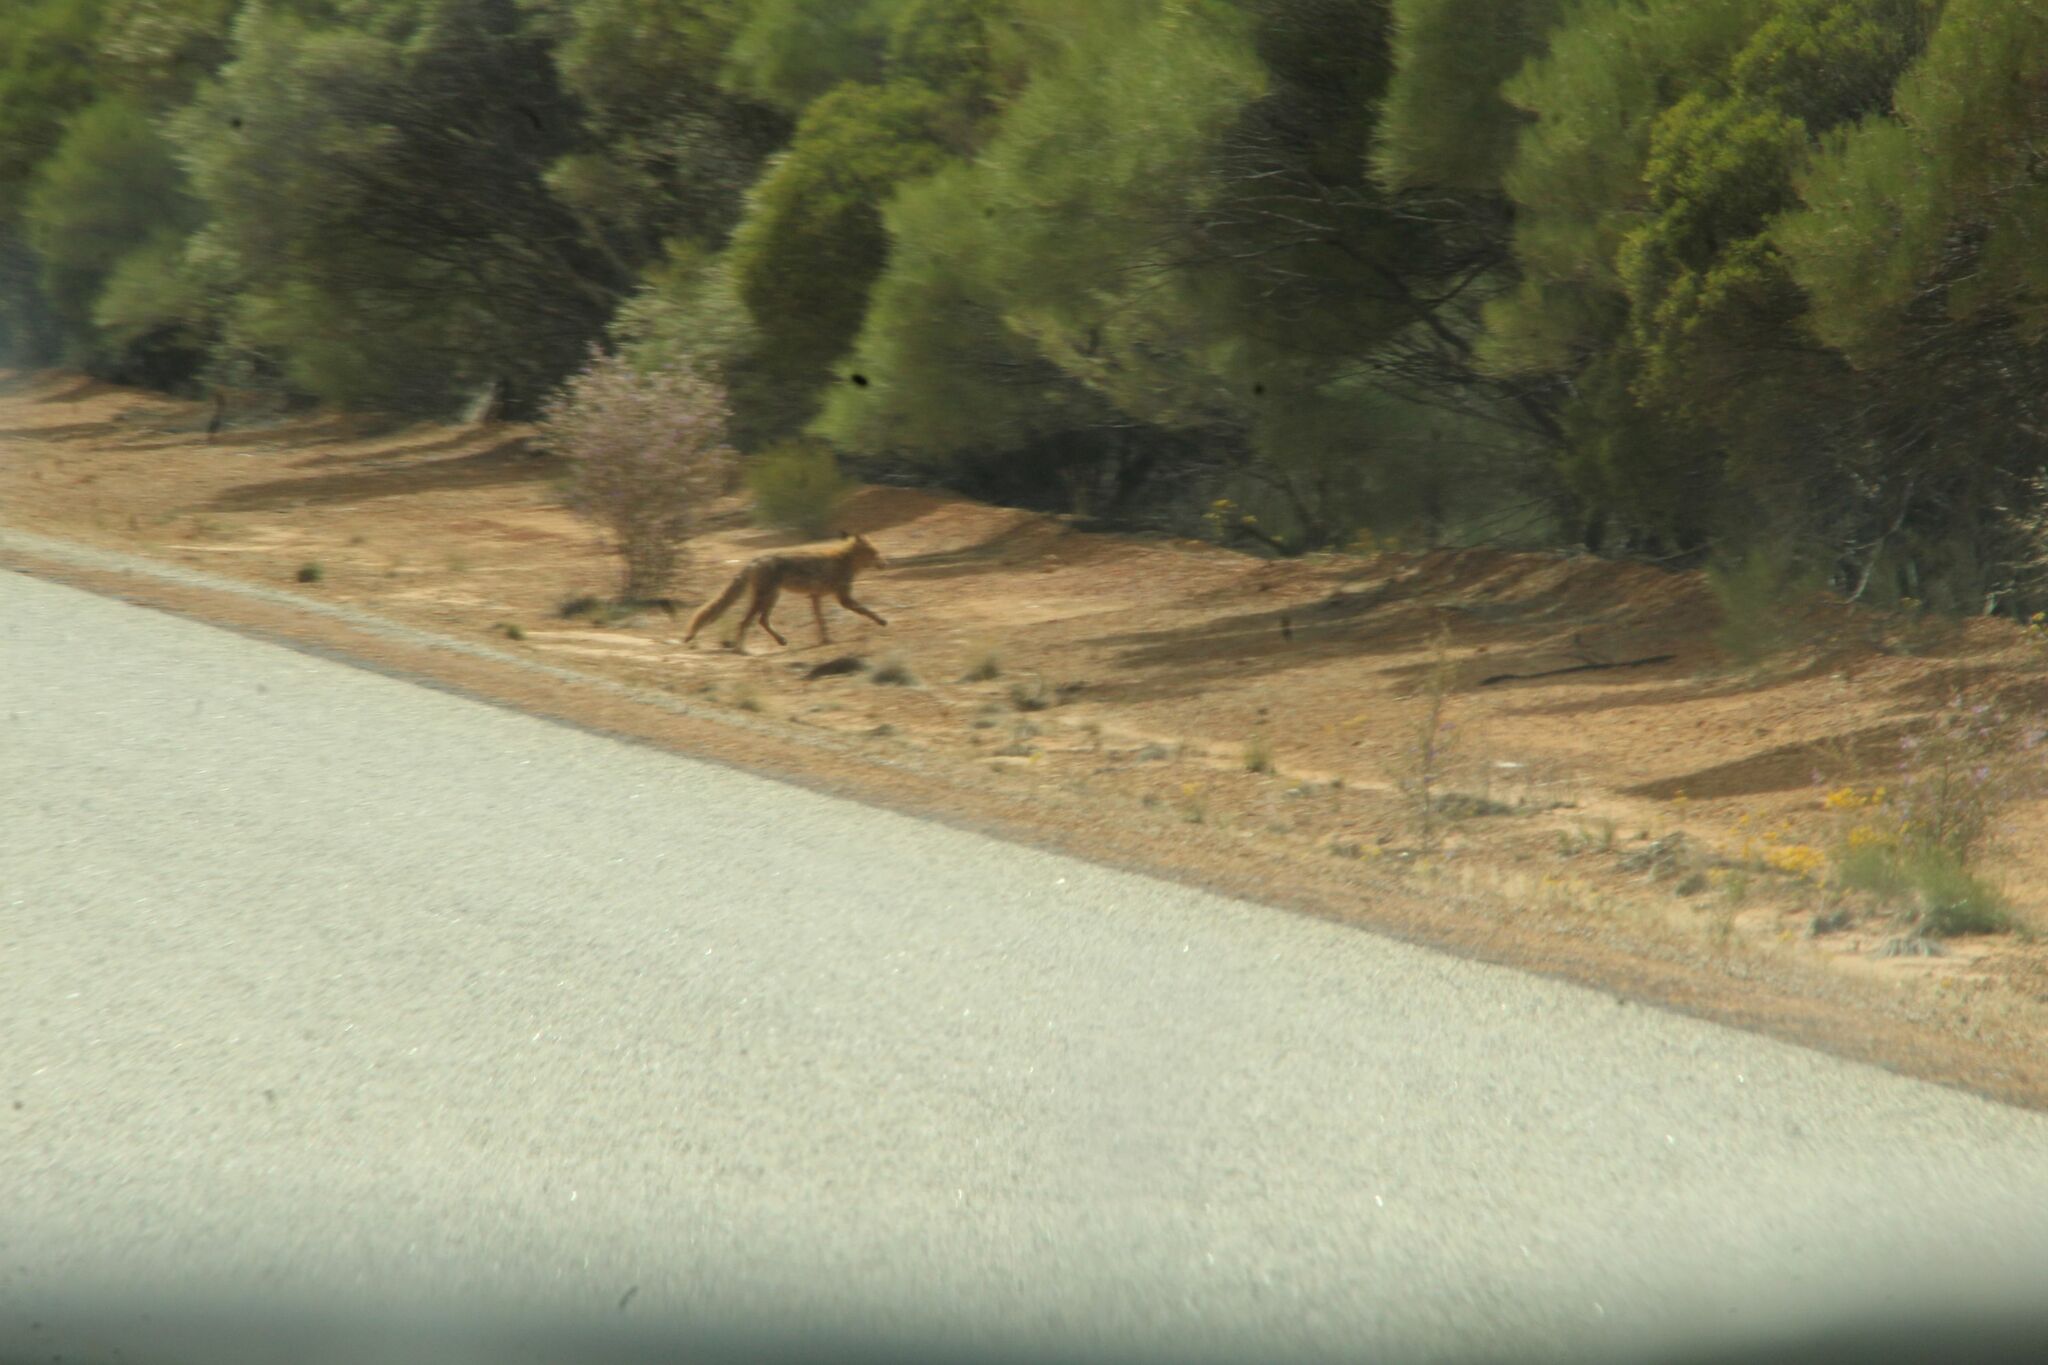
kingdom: Animalia
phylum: Chordata
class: Mammalia
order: Carnivora
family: Canidae
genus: Vulpes
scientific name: Vulpes vulpes
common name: Red fox
